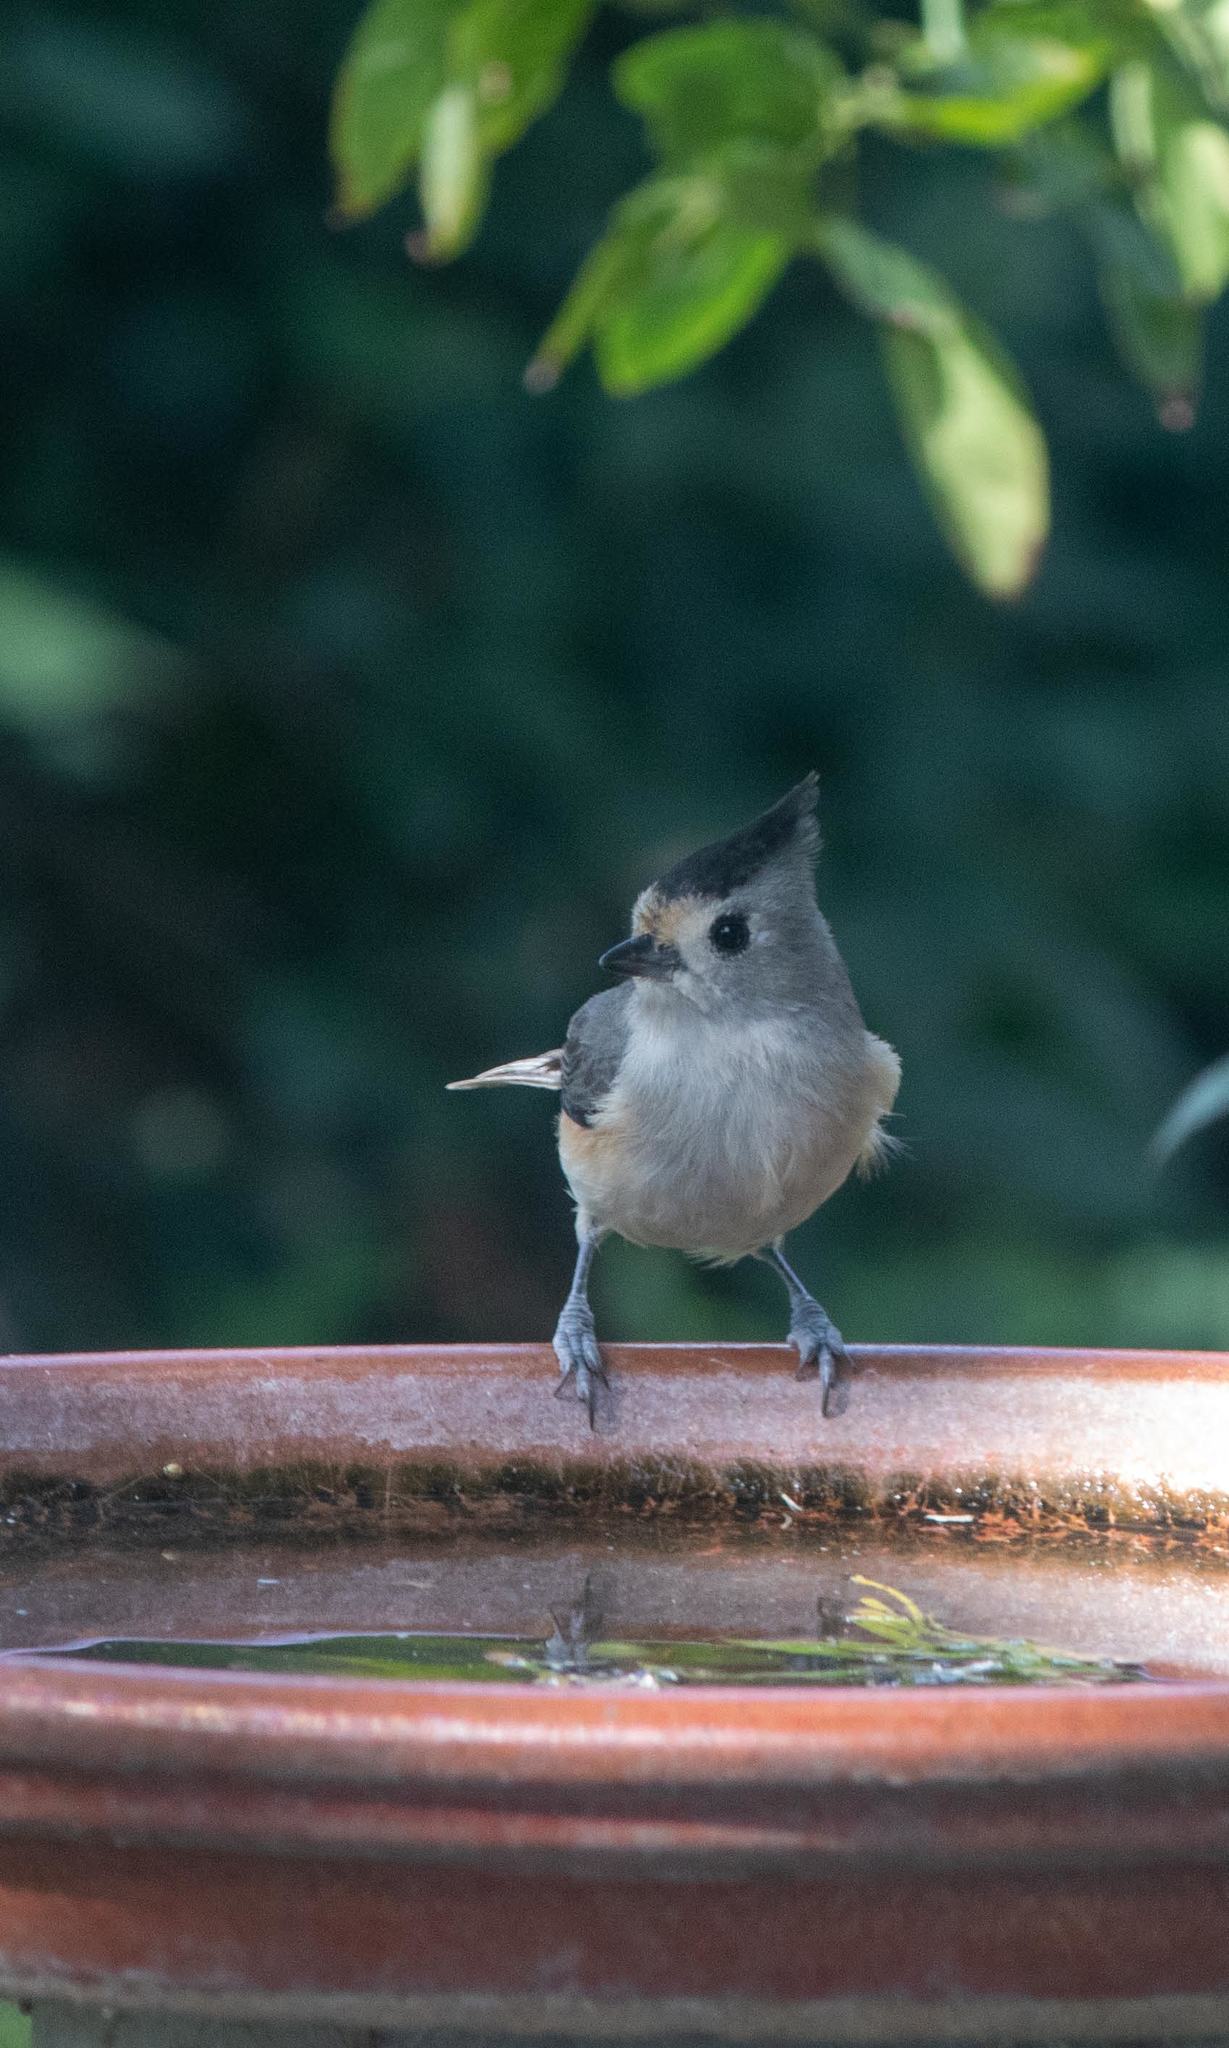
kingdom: Animalia
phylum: Chordata
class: Aves
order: Passeriformes
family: Paridae
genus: Baeolophus
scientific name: Baeolophus atricristatus
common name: Black-crested titmouse
